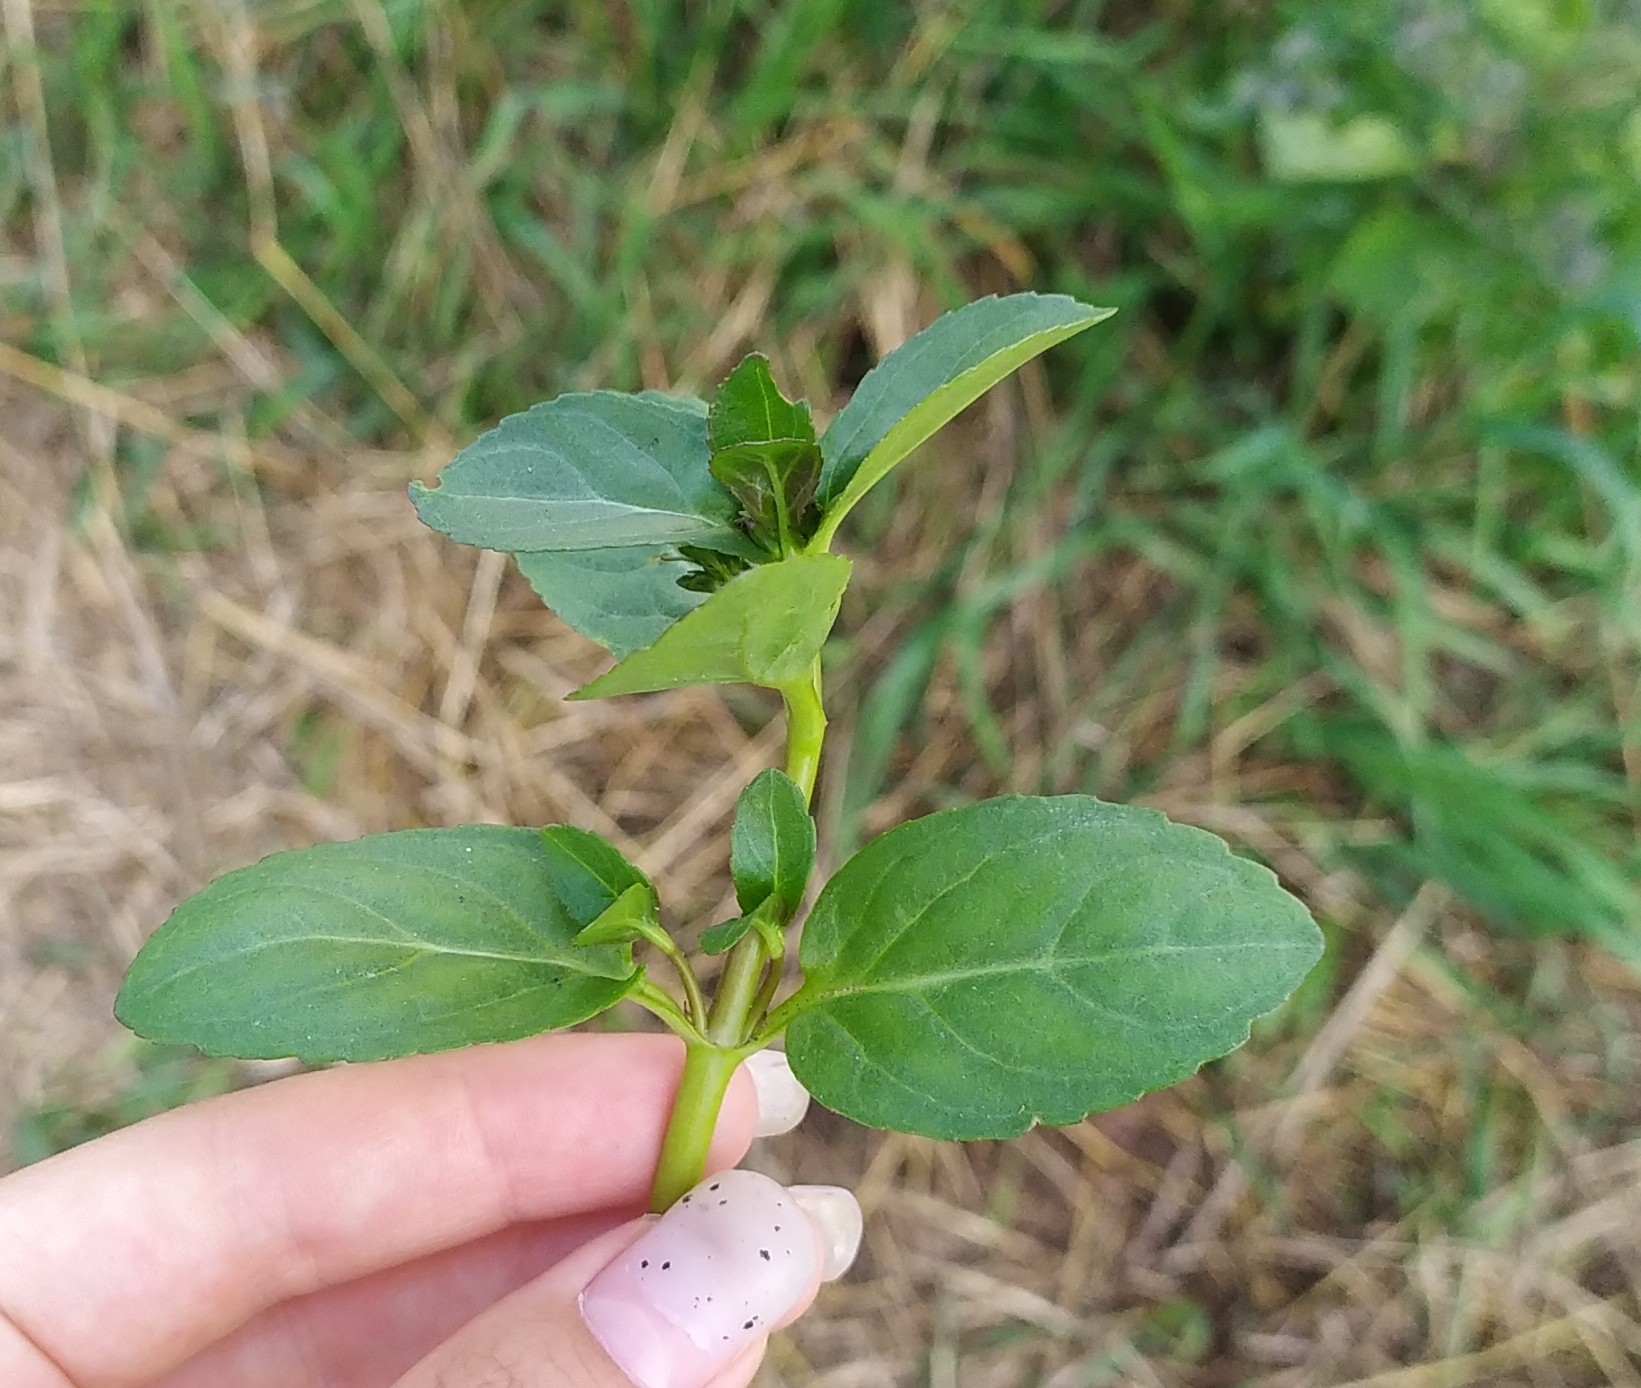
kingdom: Plantae
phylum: Tracheophyta
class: Magnoliopsida
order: Lamiales
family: Plantaginaceae
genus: Veronica
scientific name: Veronica beccabunga
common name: Brooklime
